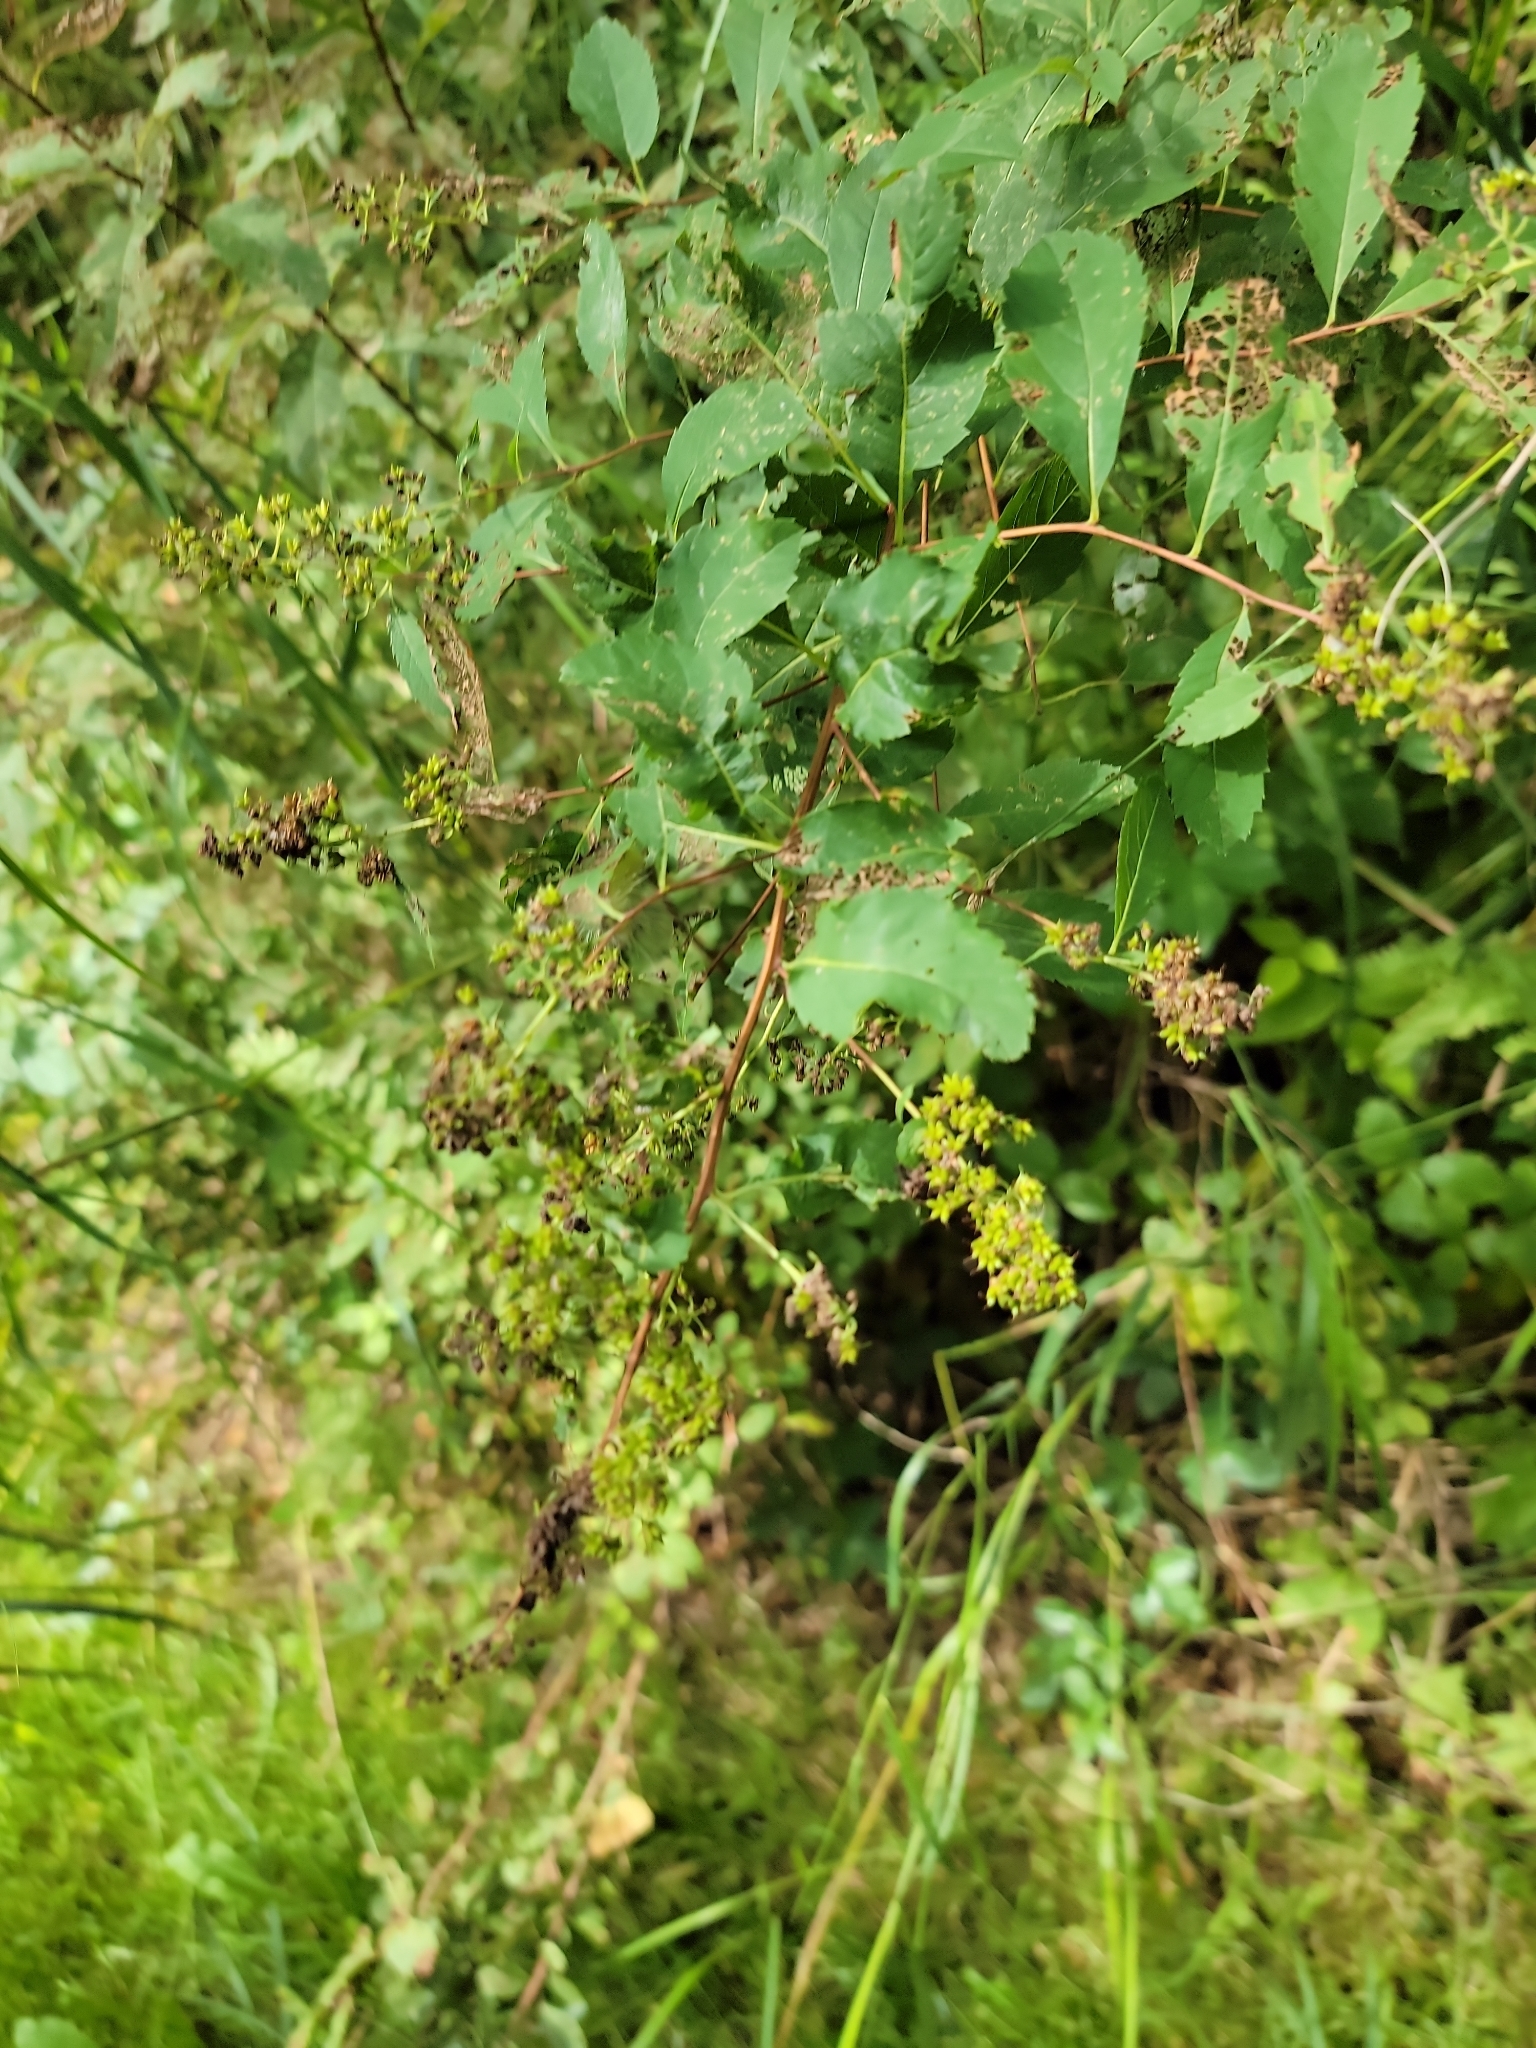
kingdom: Plantae
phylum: Tracheophyta
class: Magnoliopsida
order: Rosales
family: Rosaceae
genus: Spiraea
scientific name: Spiraea alba
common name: Pale bridewort
